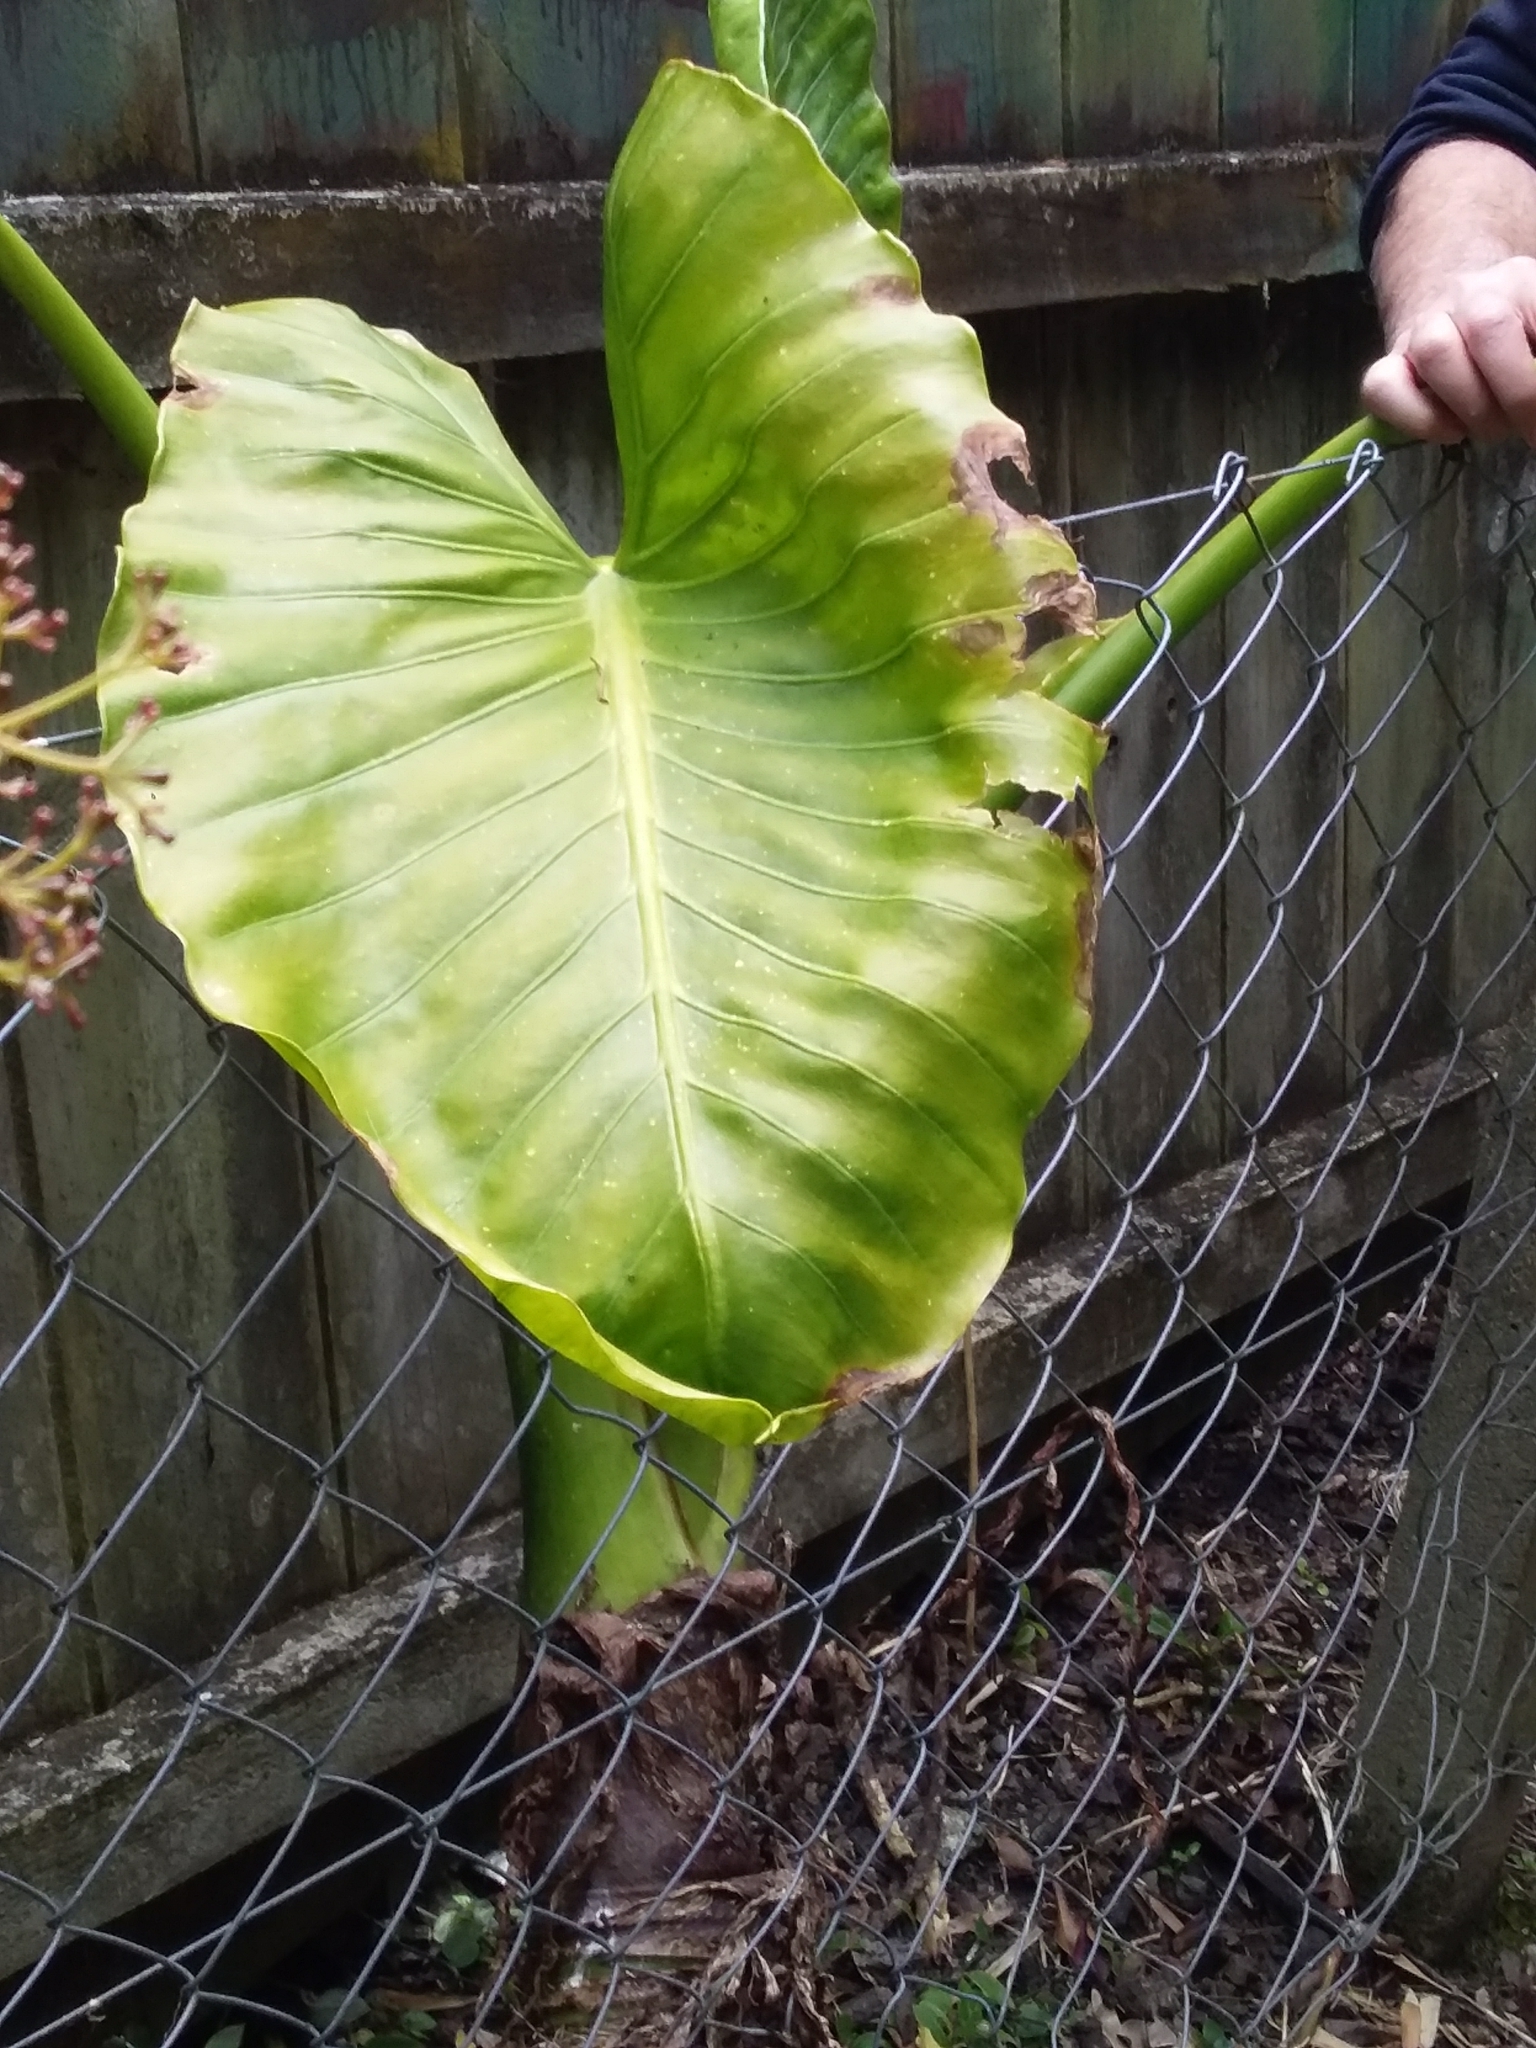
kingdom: Plantae
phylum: Tracheophyta
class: Liliopsida
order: Alismatales
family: Araceae
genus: Alocasia
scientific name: Alocasia brisbanensis
